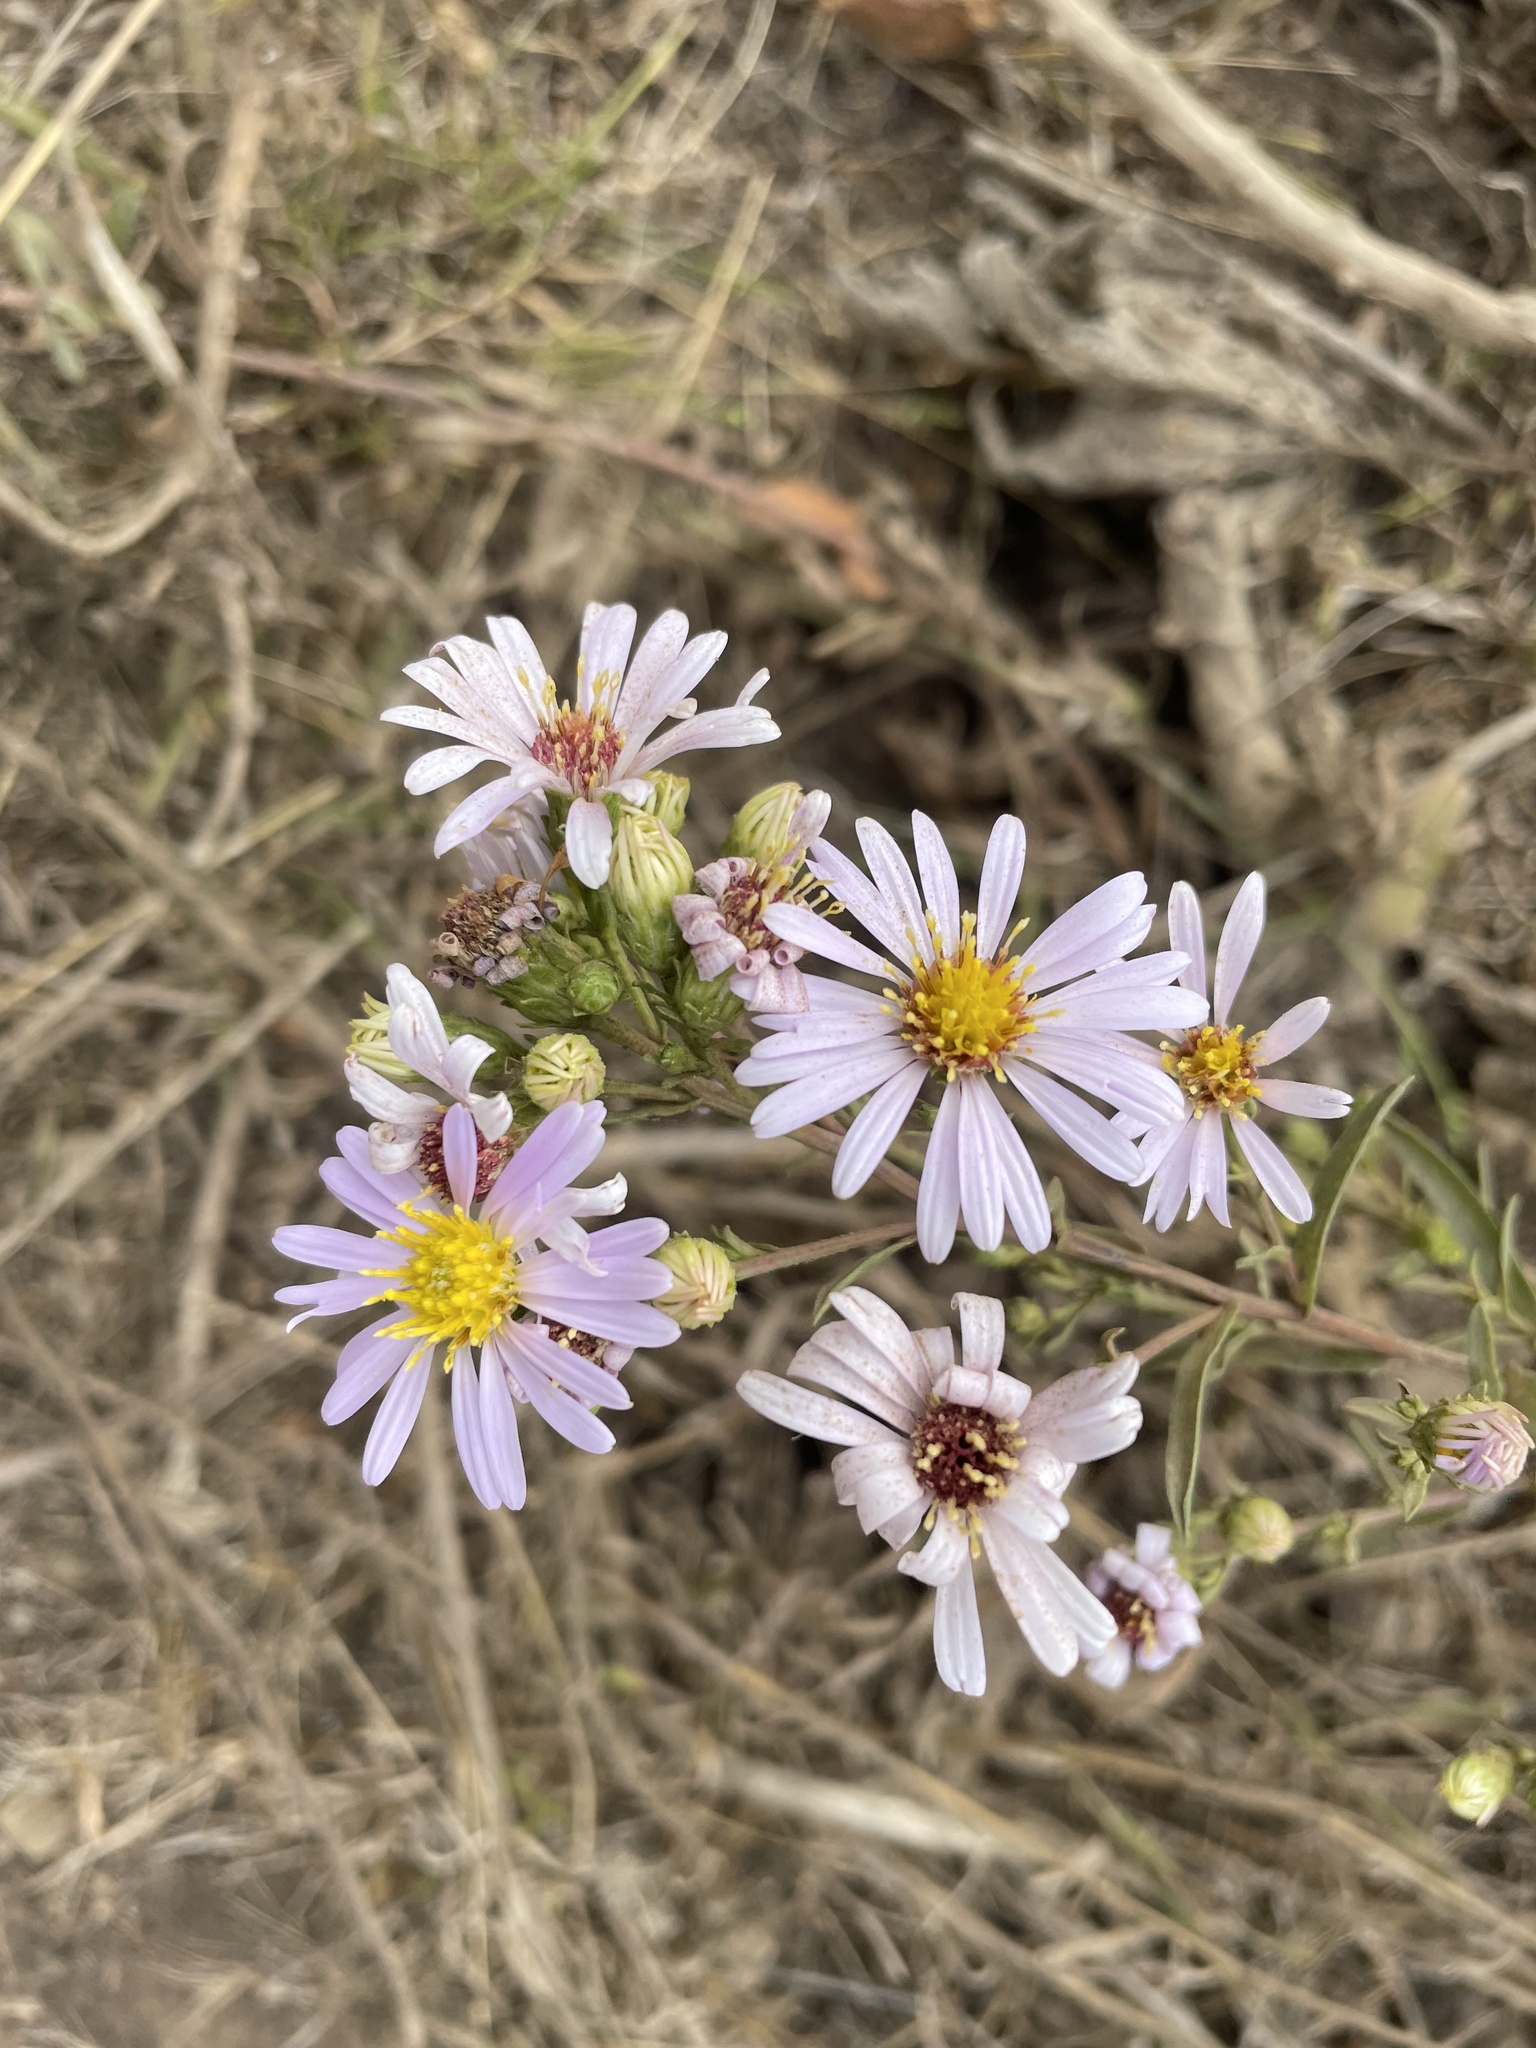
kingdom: Plantae
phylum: Tracheophyta
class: Magnoliopsida
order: Asterales
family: Asteraceae
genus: Symphyotrichum
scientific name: Symphyotrichum chilense
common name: Pacific aster
